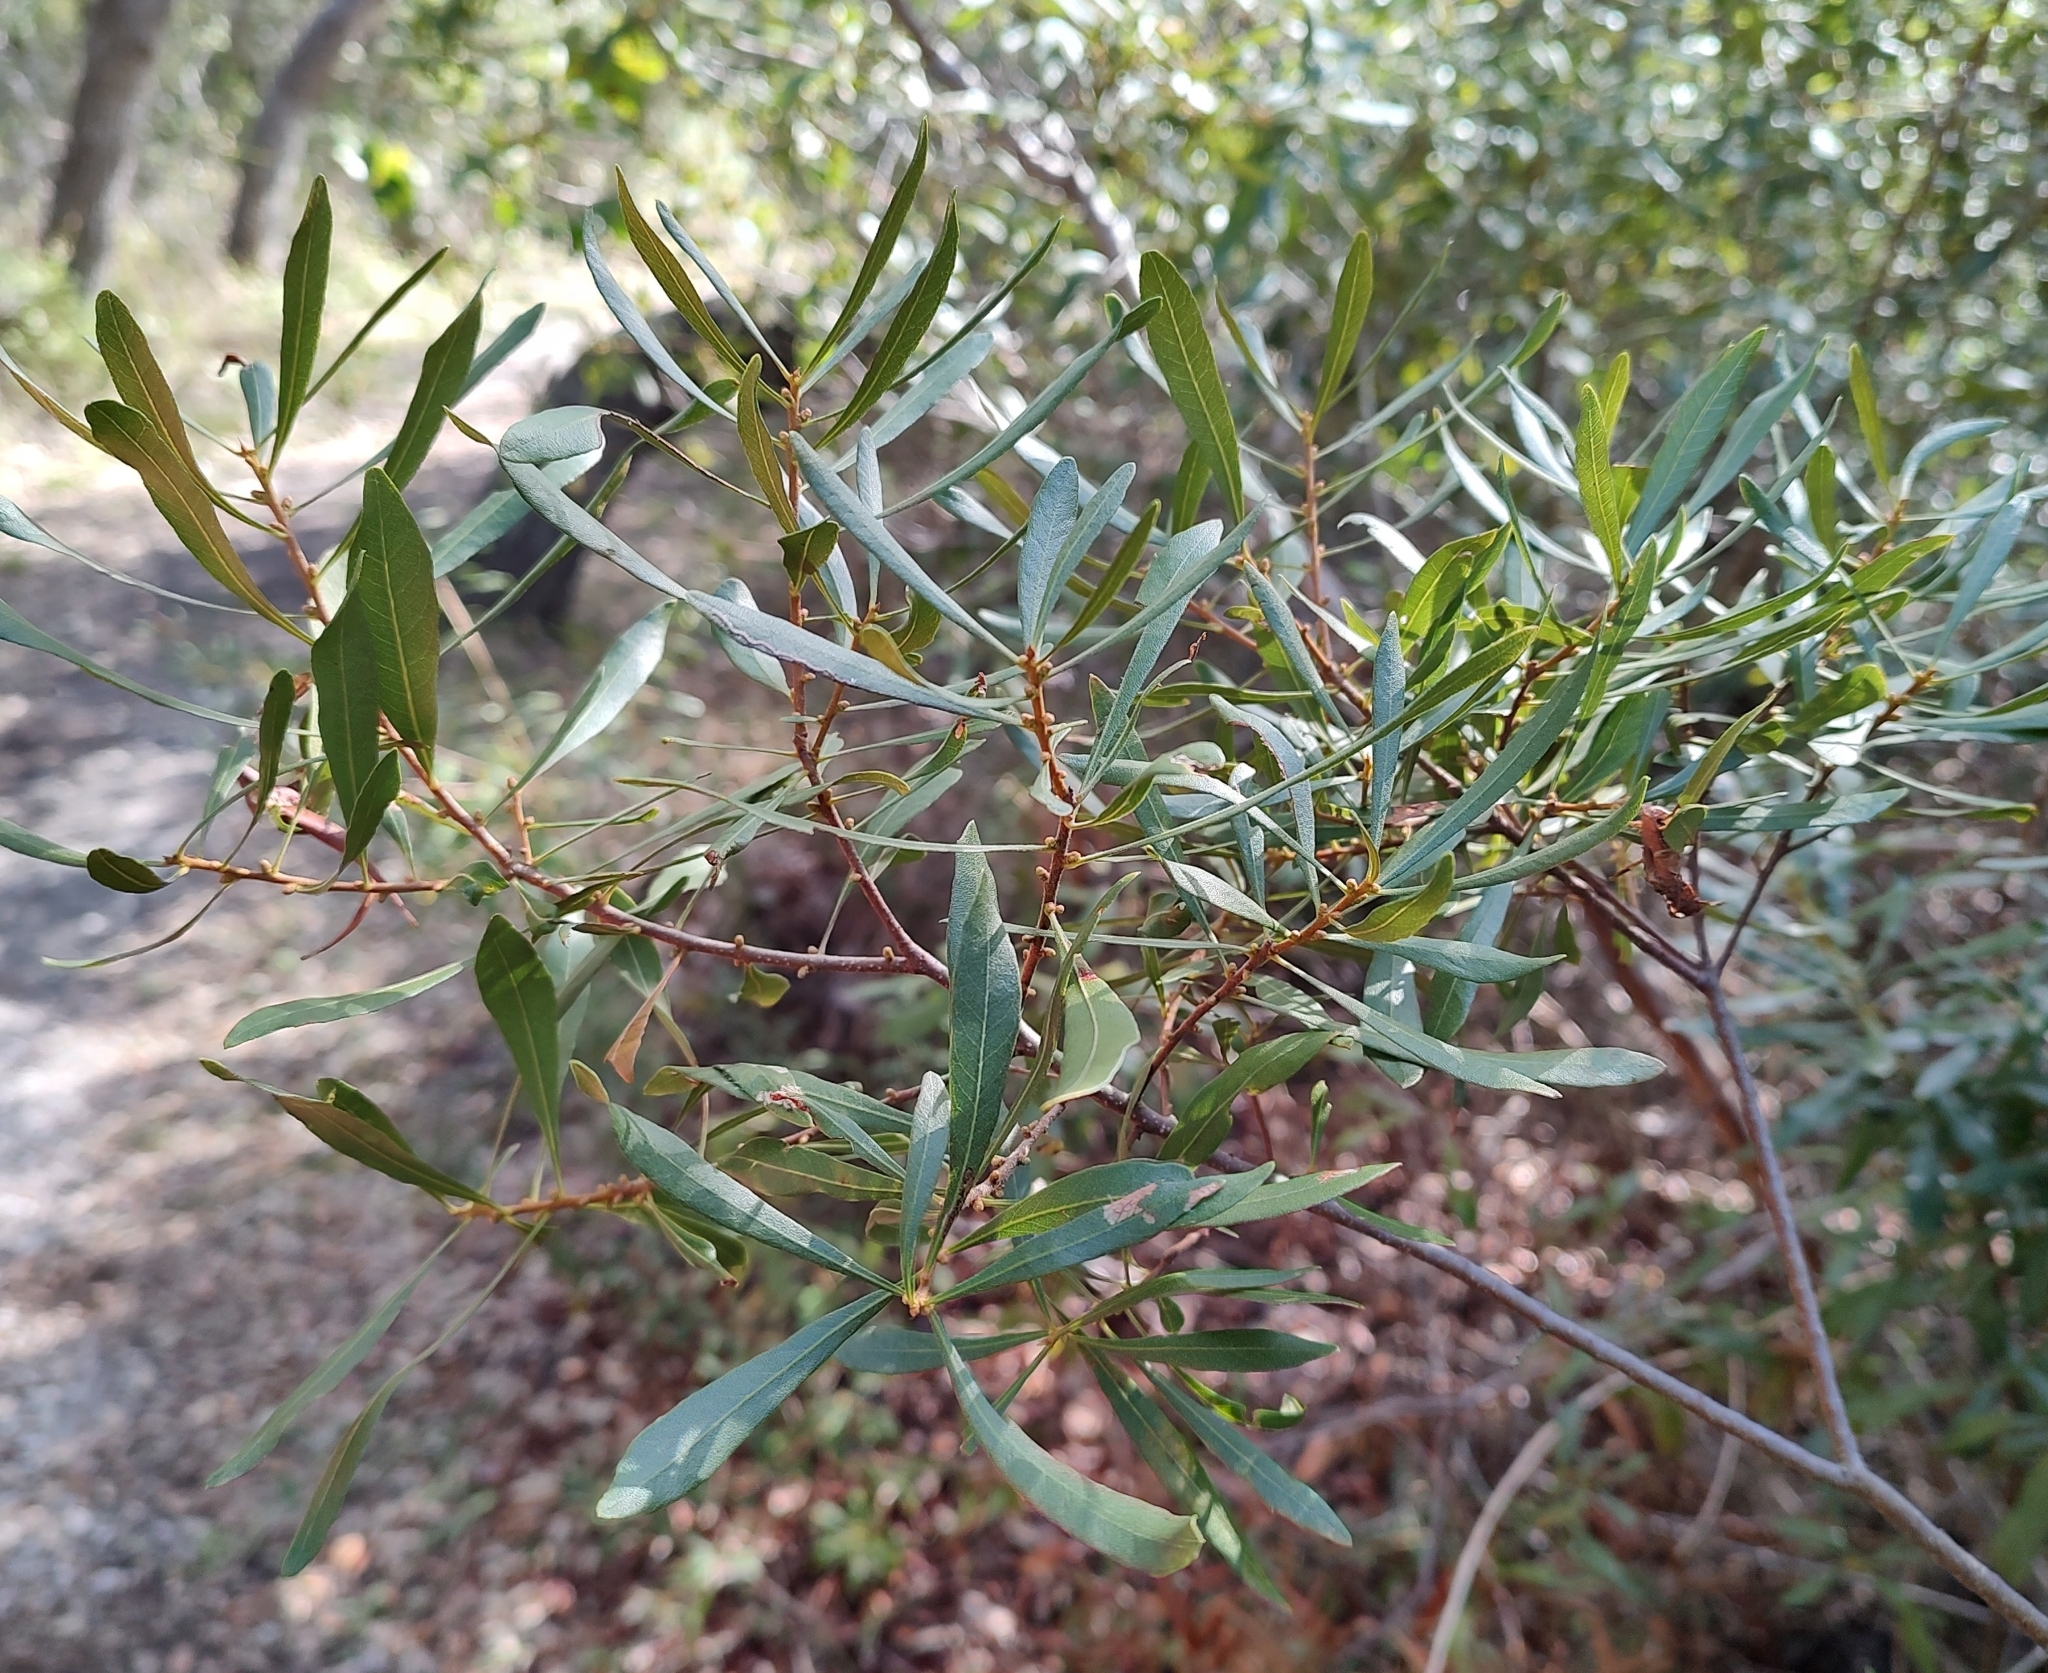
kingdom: Plantae
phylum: Tracheophyta
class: Magnoliopsida
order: Fagales
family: Myricaceae
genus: Morella
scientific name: Morella cerifera
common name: Wax myrtle
